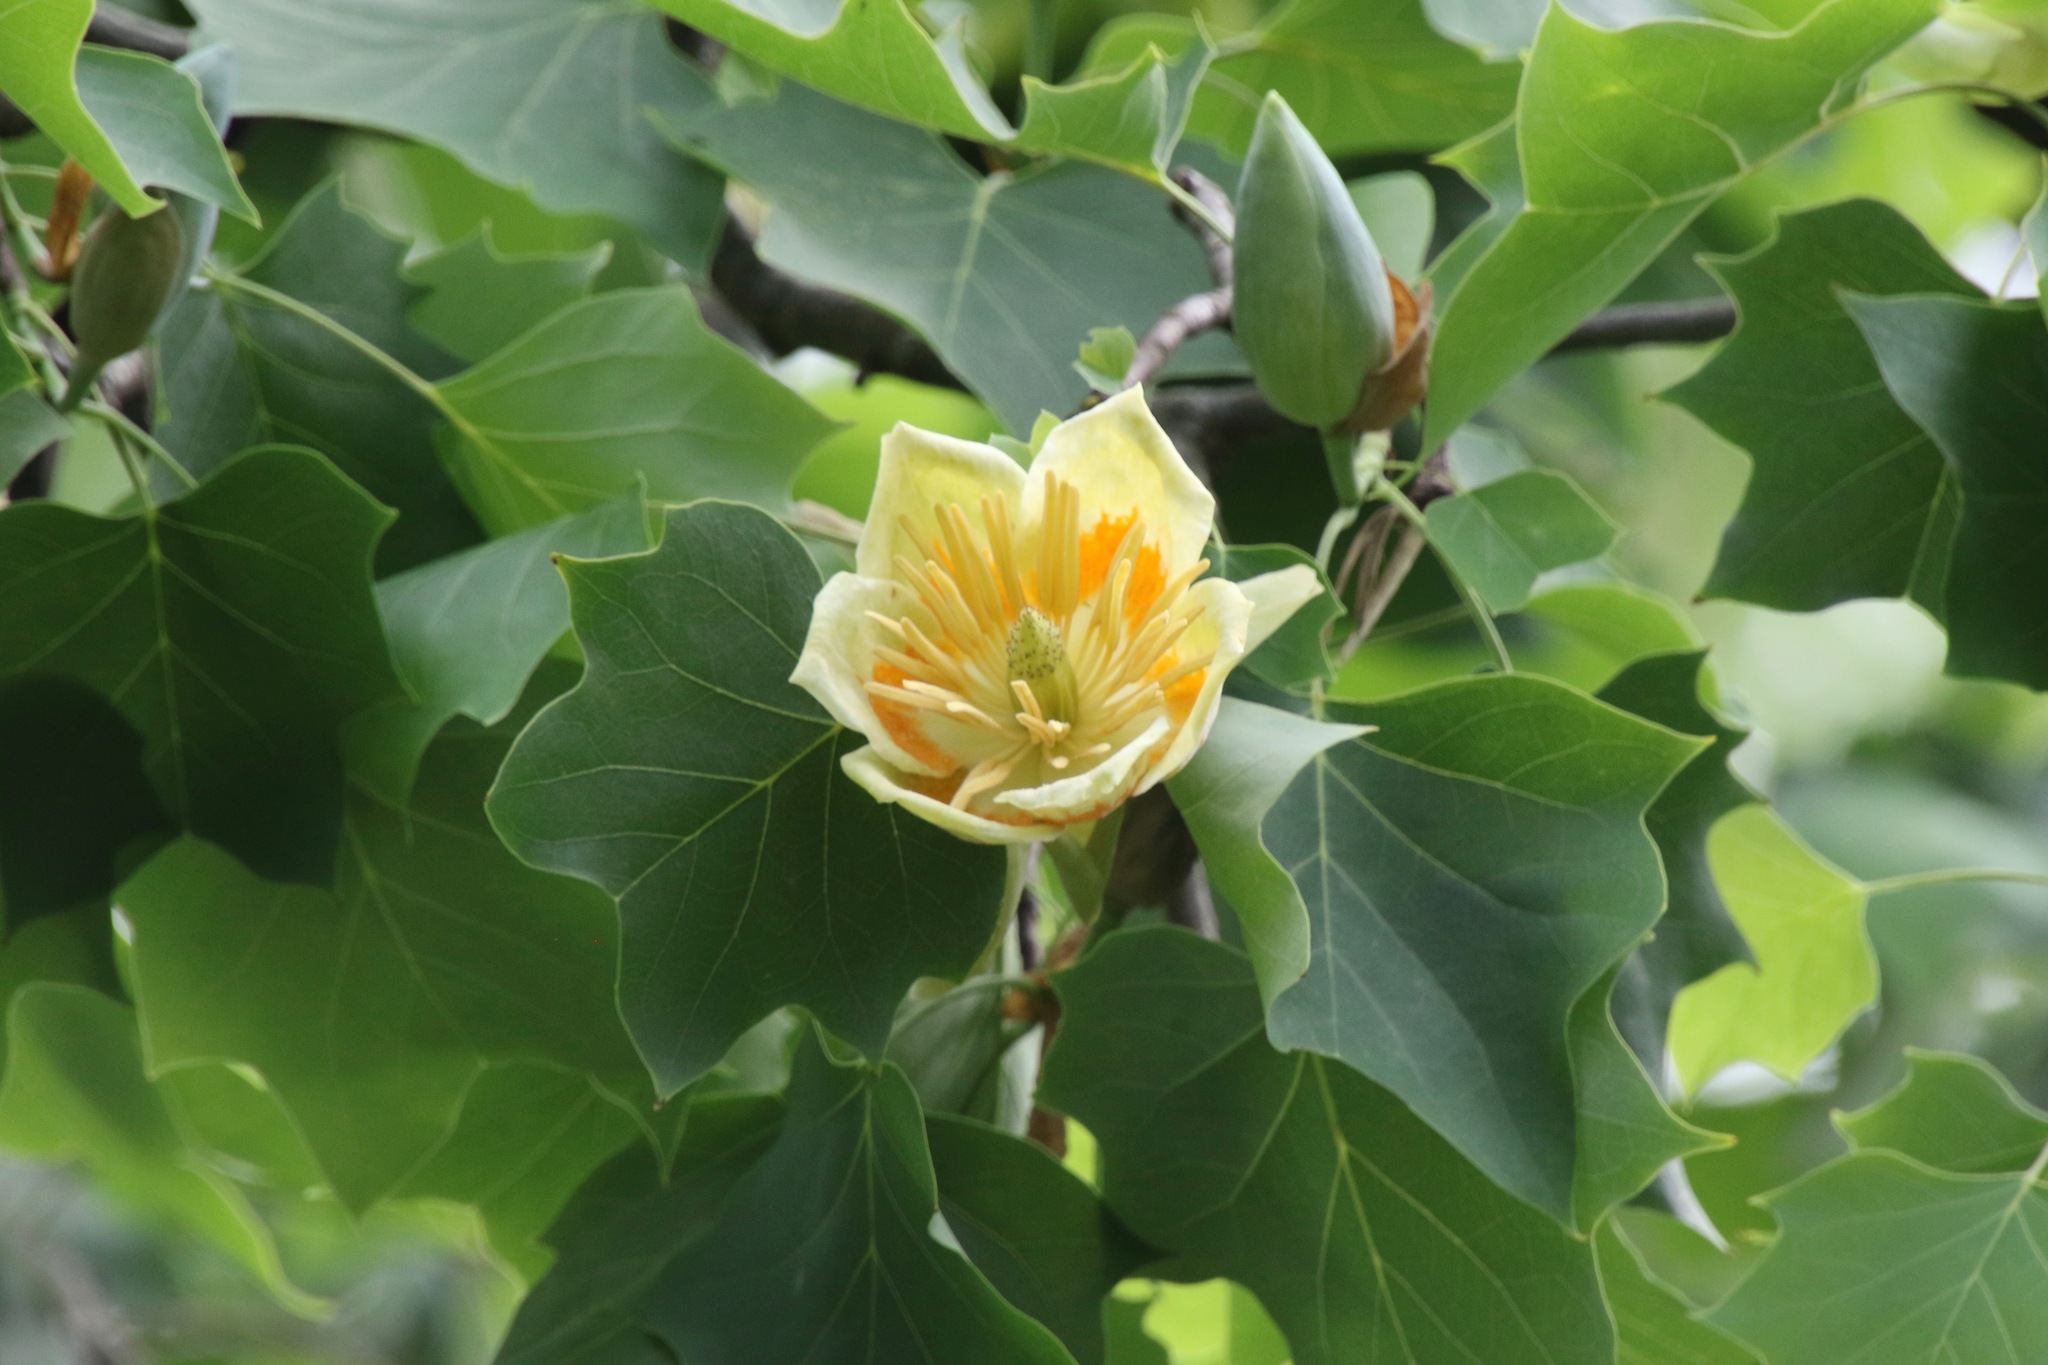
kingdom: Plantae
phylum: Tracheophyta
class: Magnoliopsida
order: Magnoliales
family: Magnoliaceae
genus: Liriodendron
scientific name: Liriodendron tulipifera
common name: Tulip tree
